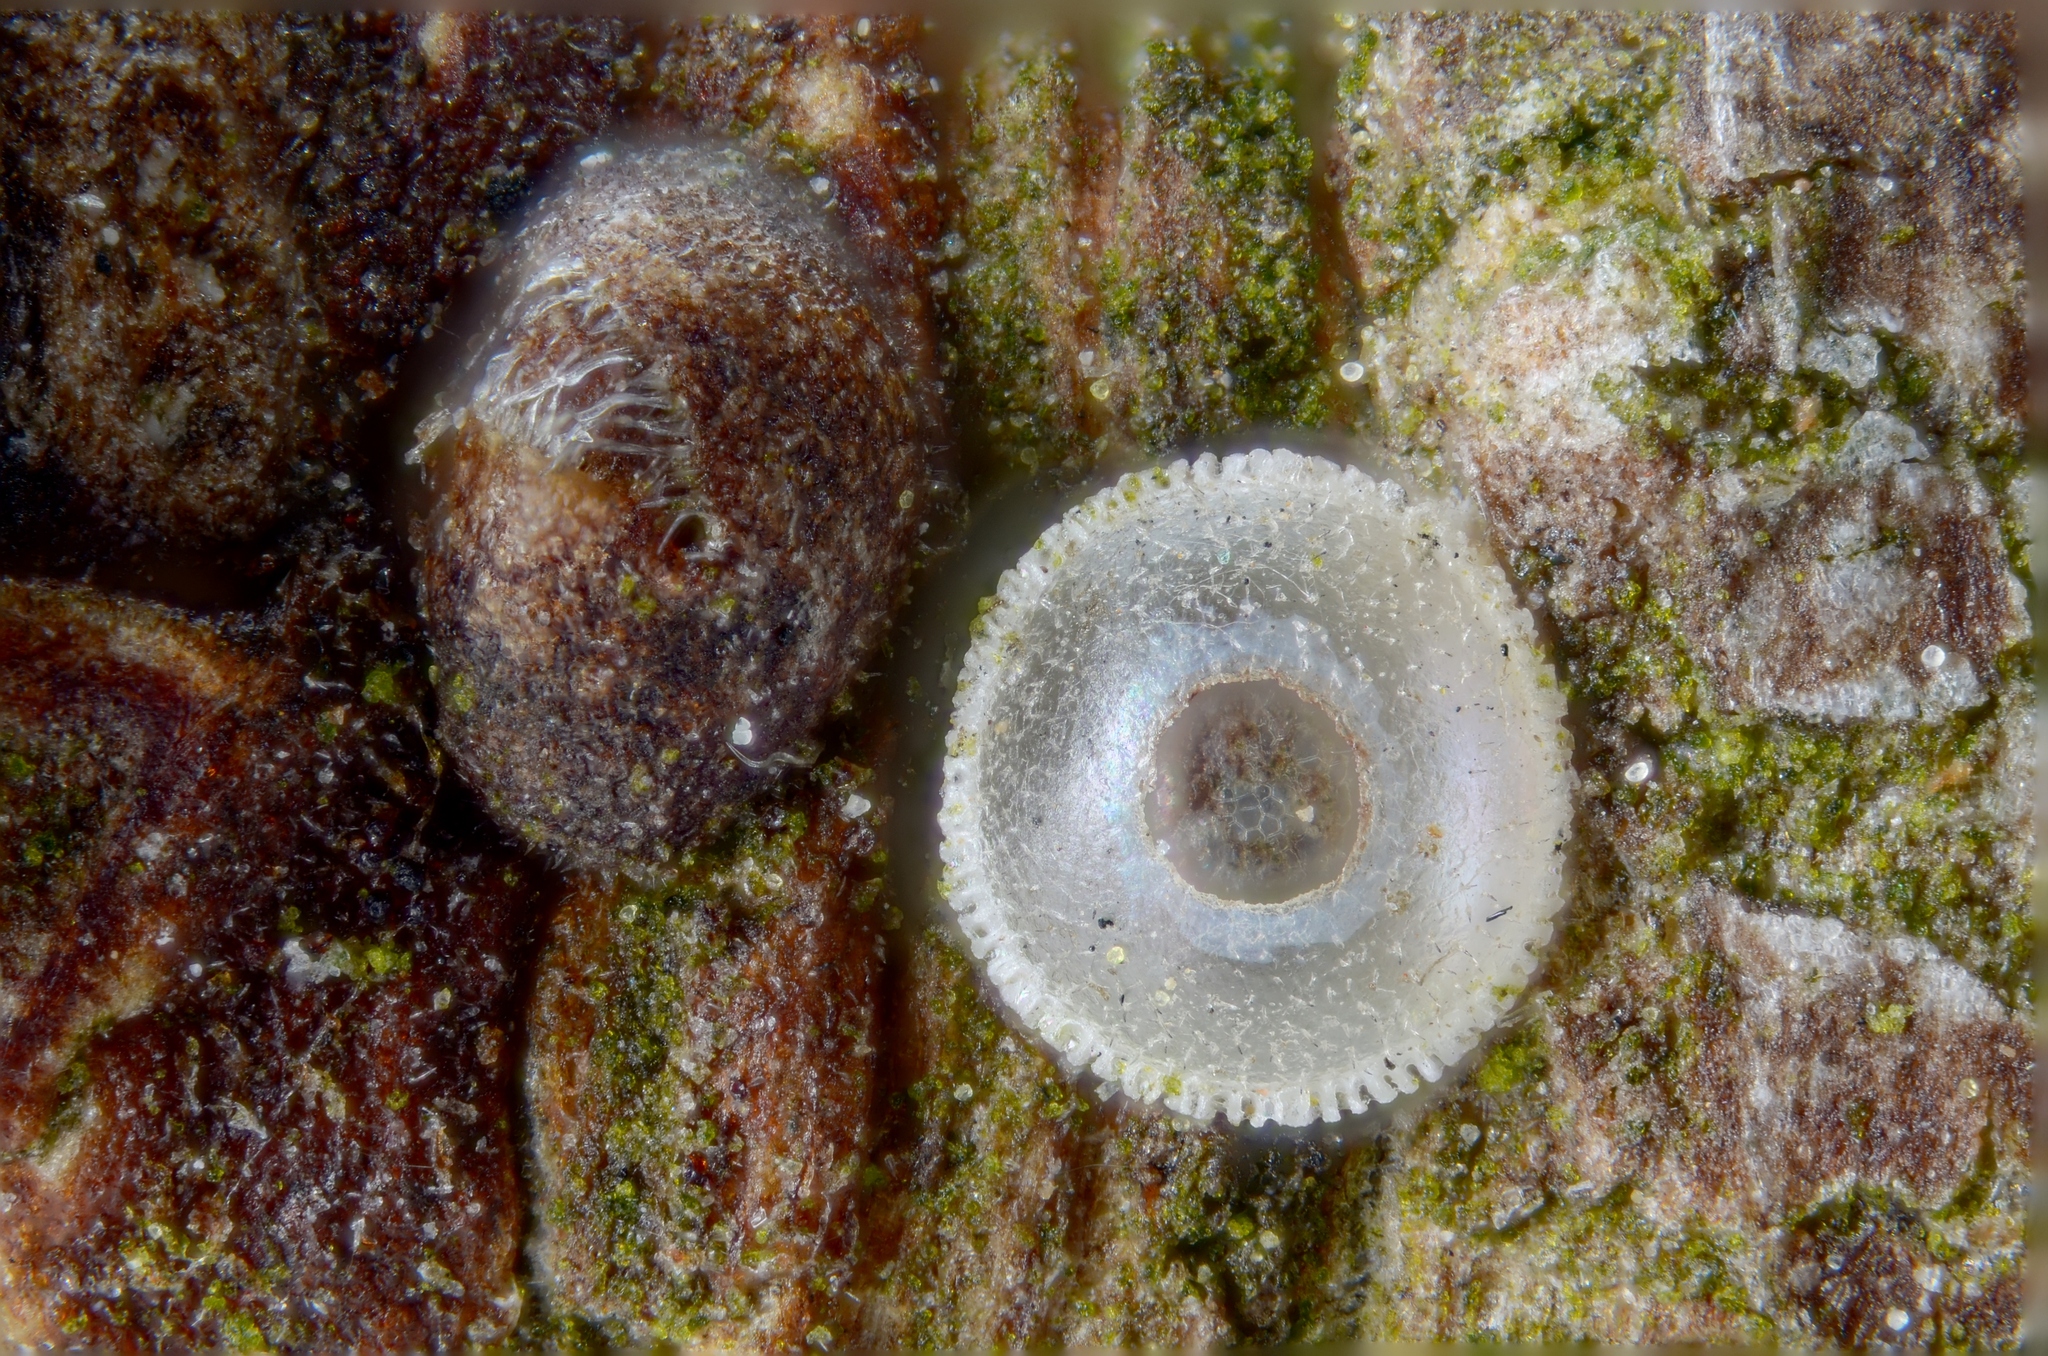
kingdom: Animalia
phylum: Arthropoda
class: Insecta
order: Lepidoptera
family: Lycaenidae
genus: Satyrium
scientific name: Satyrium w-album
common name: White-letter hairstreak
